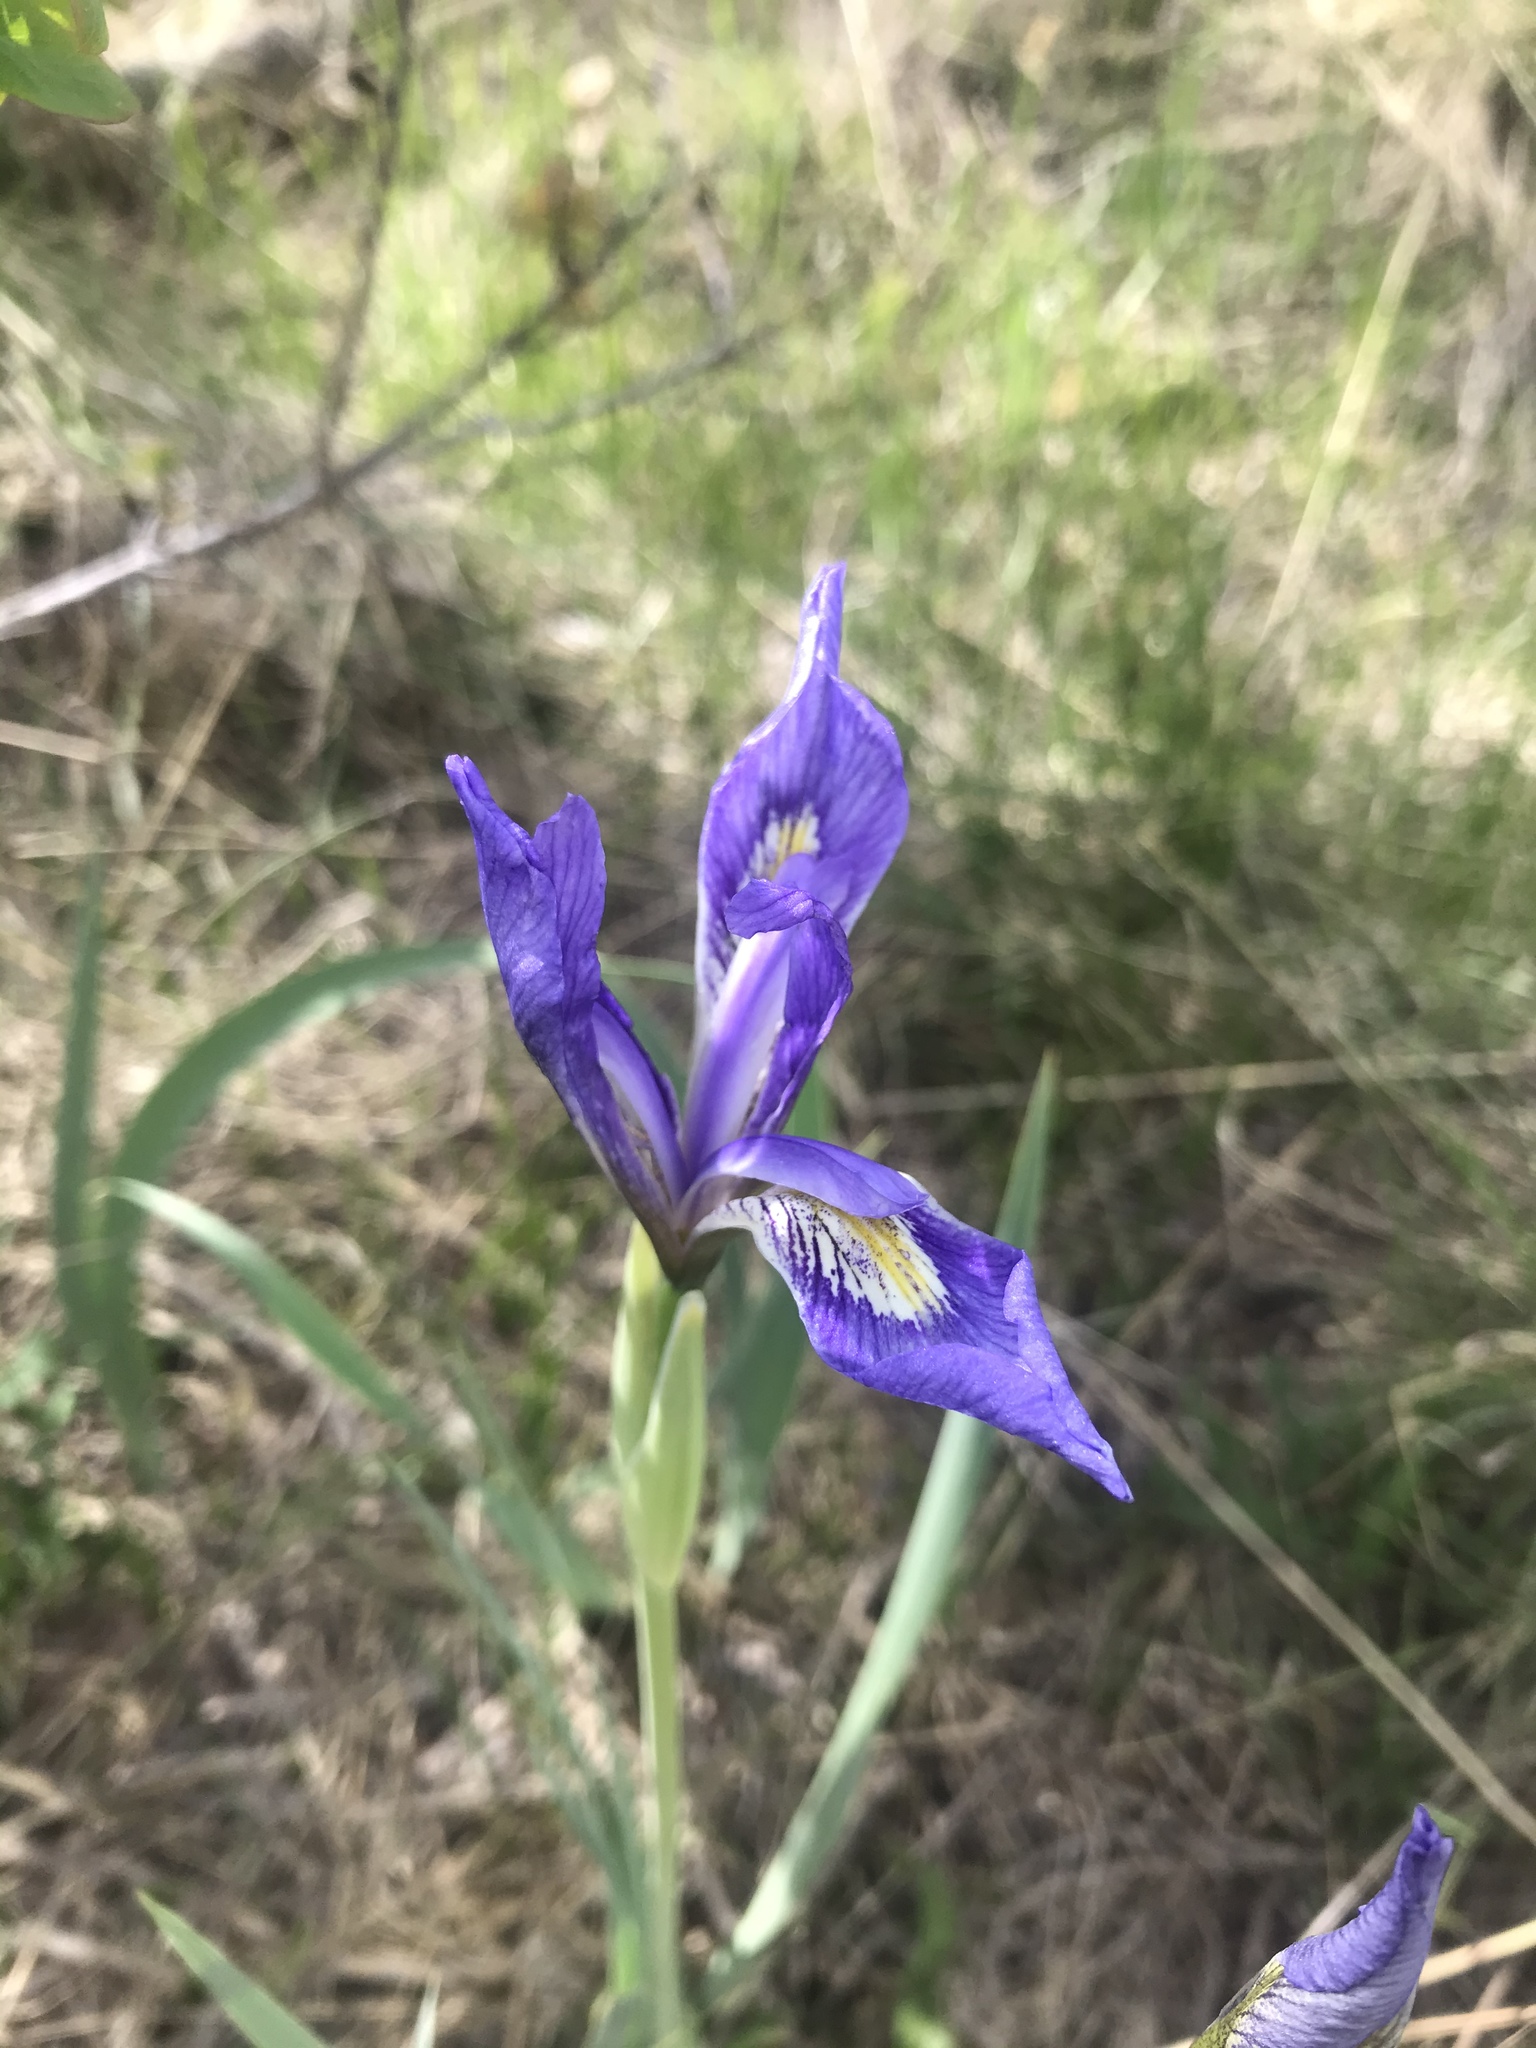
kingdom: Plantae
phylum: Tracheophyta
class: Liliopsida
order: Asparagales
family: Iridaceae
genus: Iris
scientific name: Iris missouriensis
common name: Rocky mountain iris
